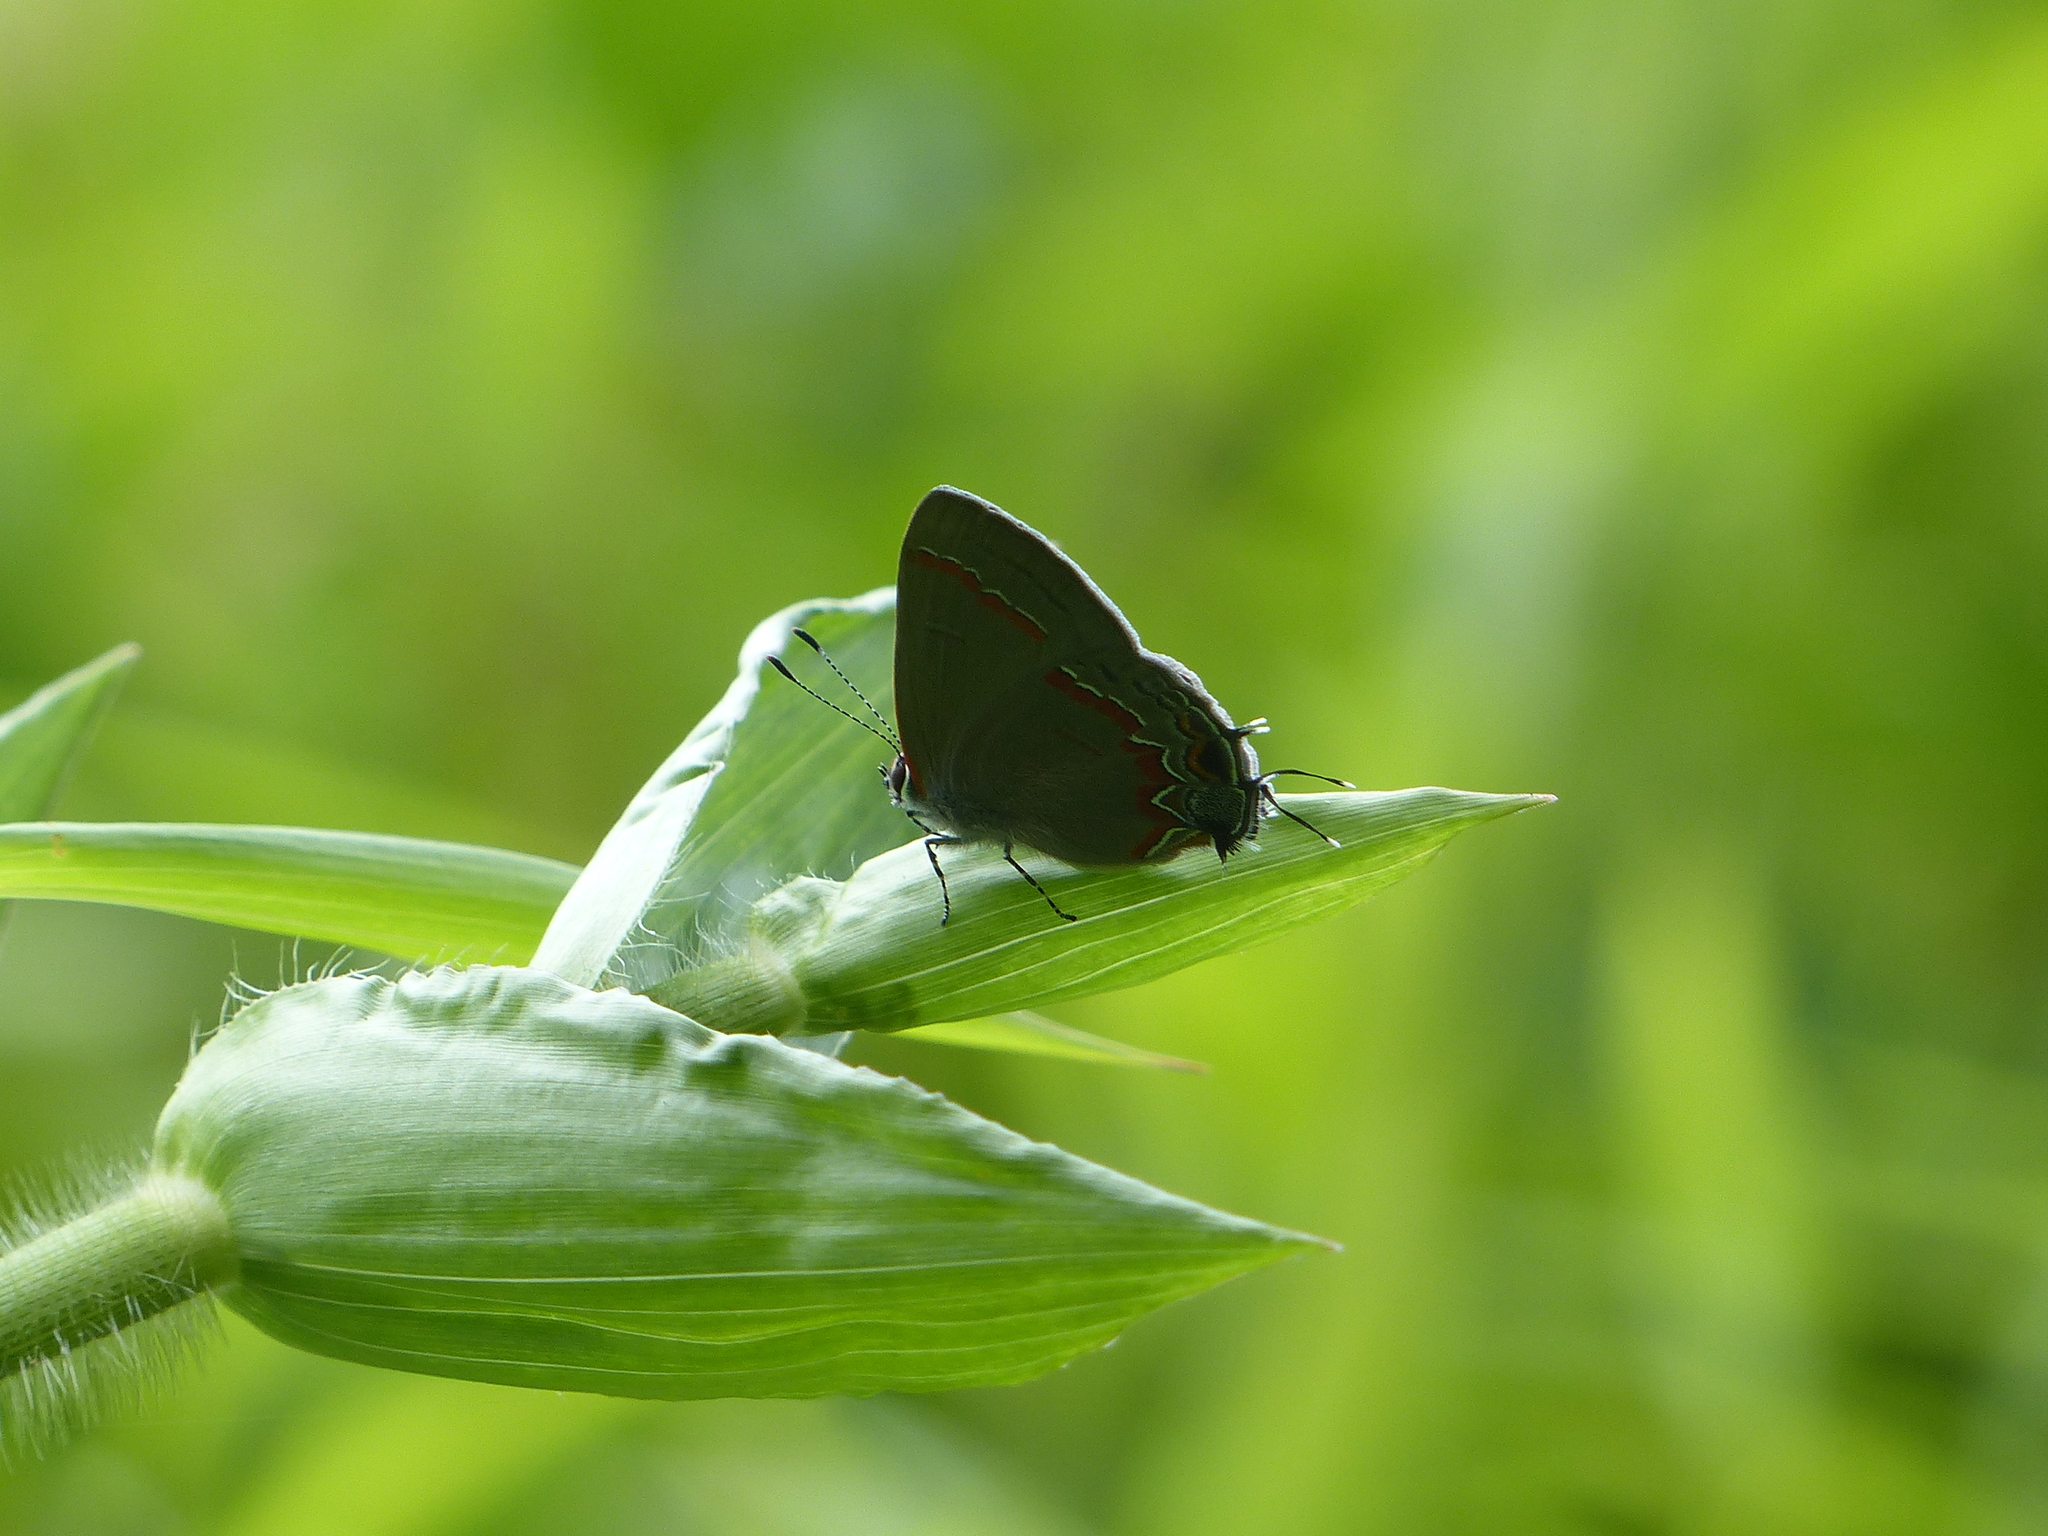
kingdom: Animalia
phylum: Arthropoda
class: Insecta
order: Lepidoptera
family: Lycaenidae
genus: Calycopis
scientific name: Calycopis cecrops
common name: Red-banded hairstreak
